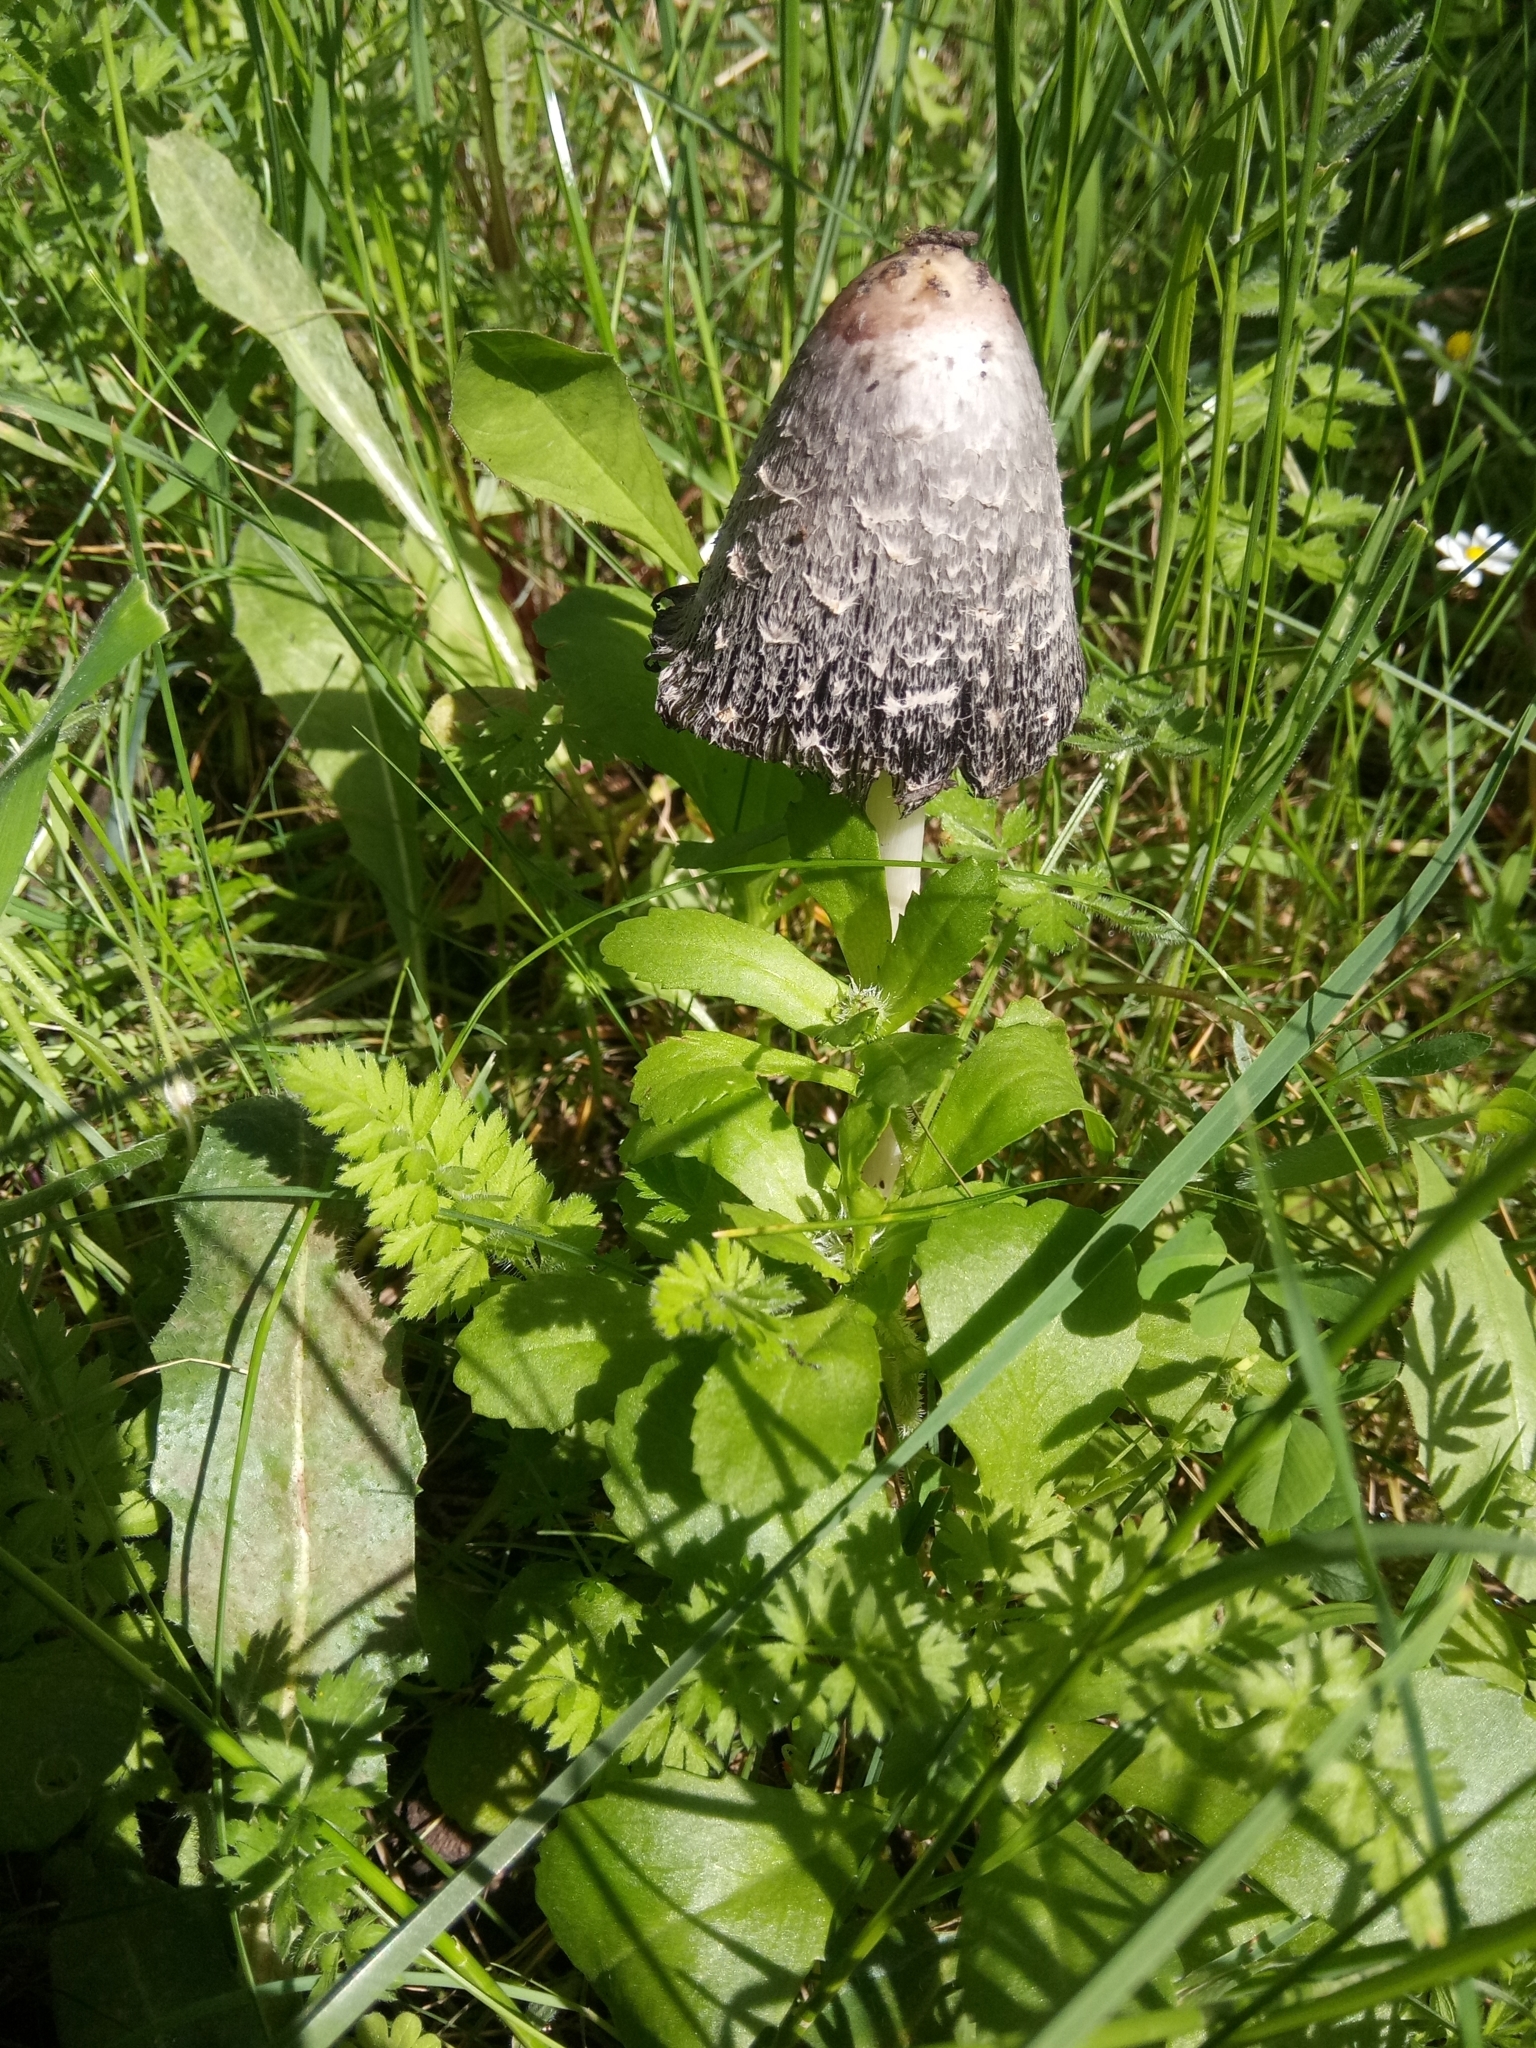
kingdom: Fungi
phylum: Basidiomycota
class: Agaricomycetes
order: Agaricales
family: Agaricaceae
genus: Coprinus
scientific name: Coprinus comatus
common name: Lawyer's wig
